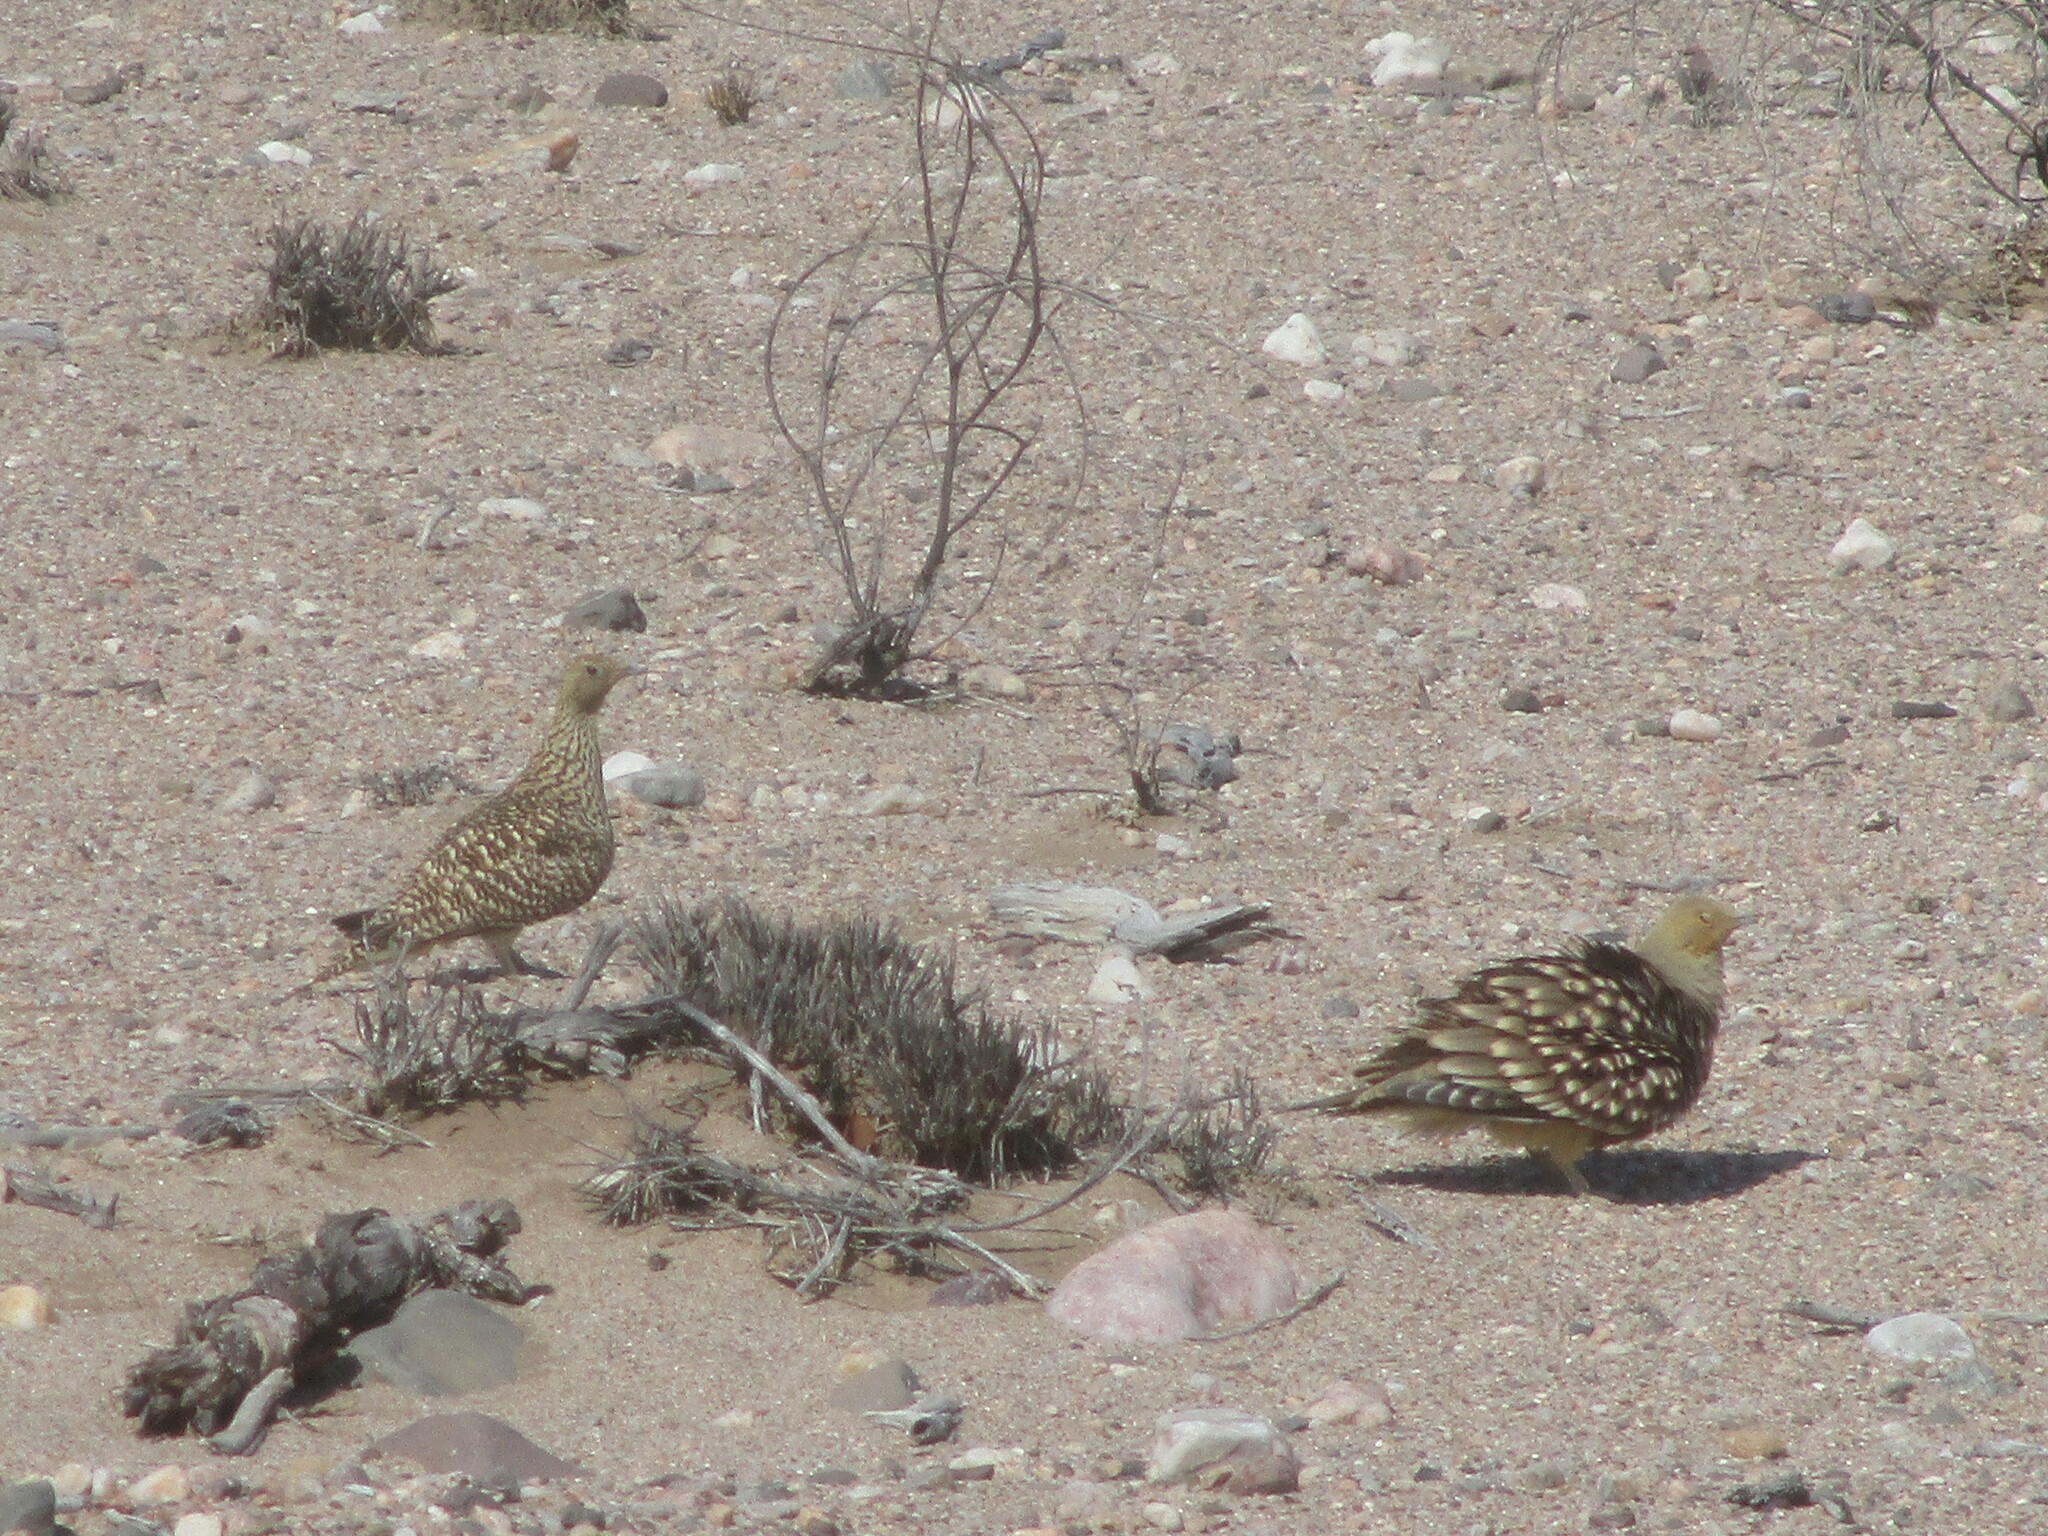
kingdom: Animalia
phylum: Chordata
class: Aves
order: Pteroclidiformes
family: Pteroclididae
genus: Pterocles
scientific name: Pterocles namaqua
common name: Namaqua sandgrouse
